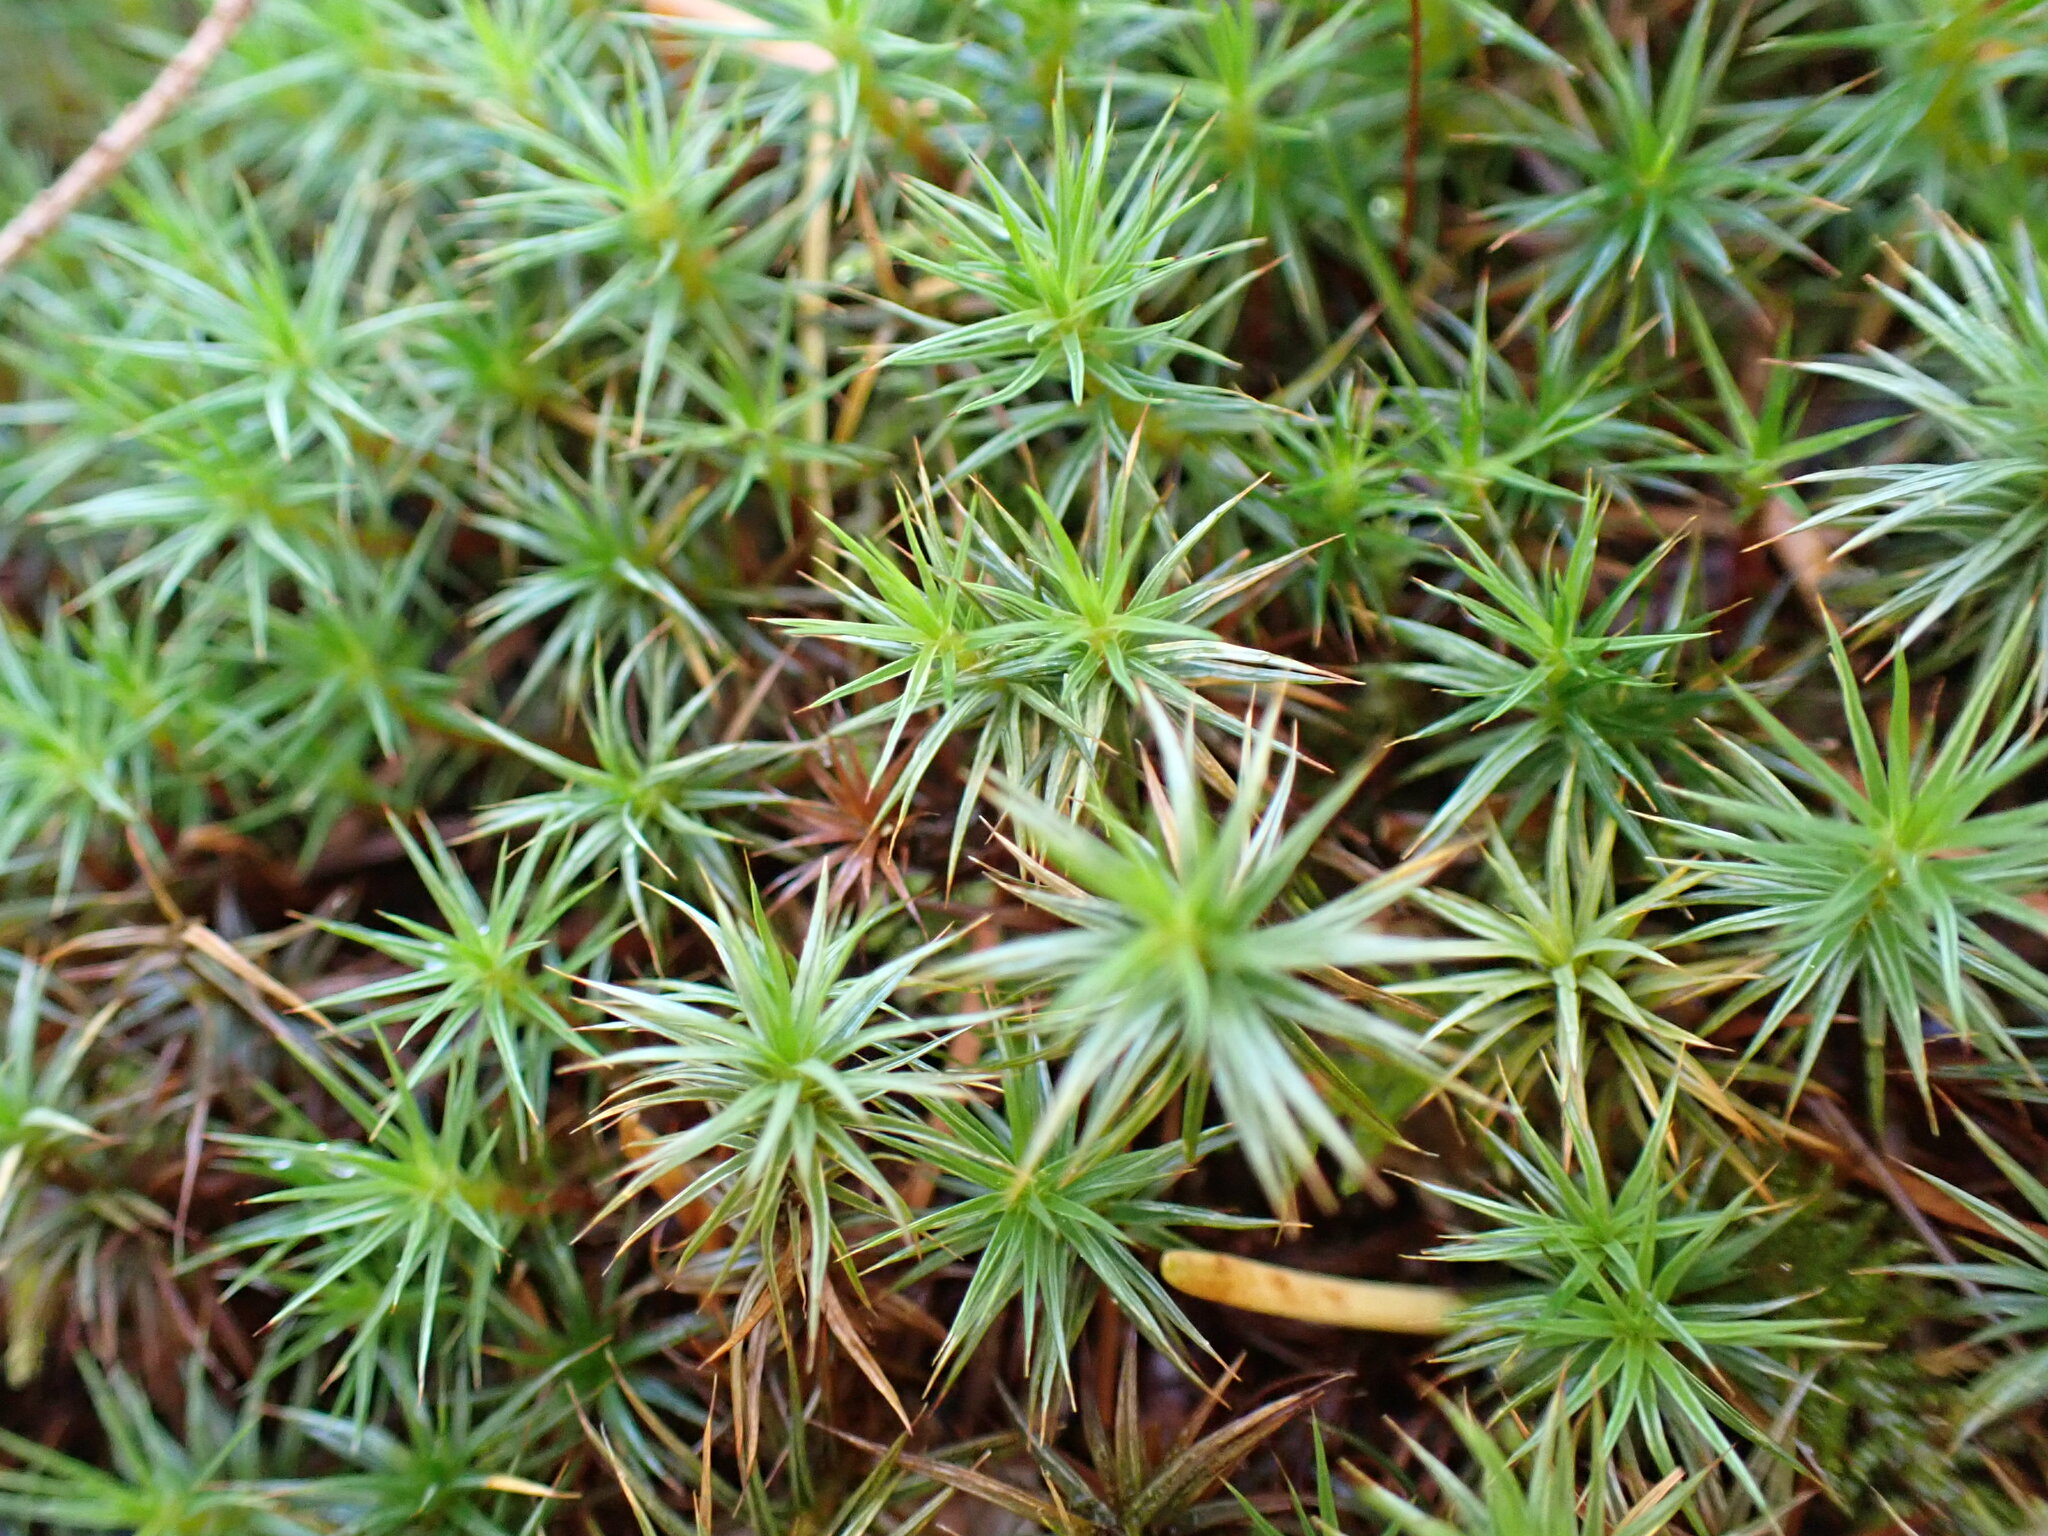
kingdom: Plantae
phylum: Bryophyta
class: Polytrichopsida
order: Polytrichales
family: Polytrichaceae
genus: Polytrichum
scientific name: Polytrichum juniperinum
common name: Juniper haircap moss
